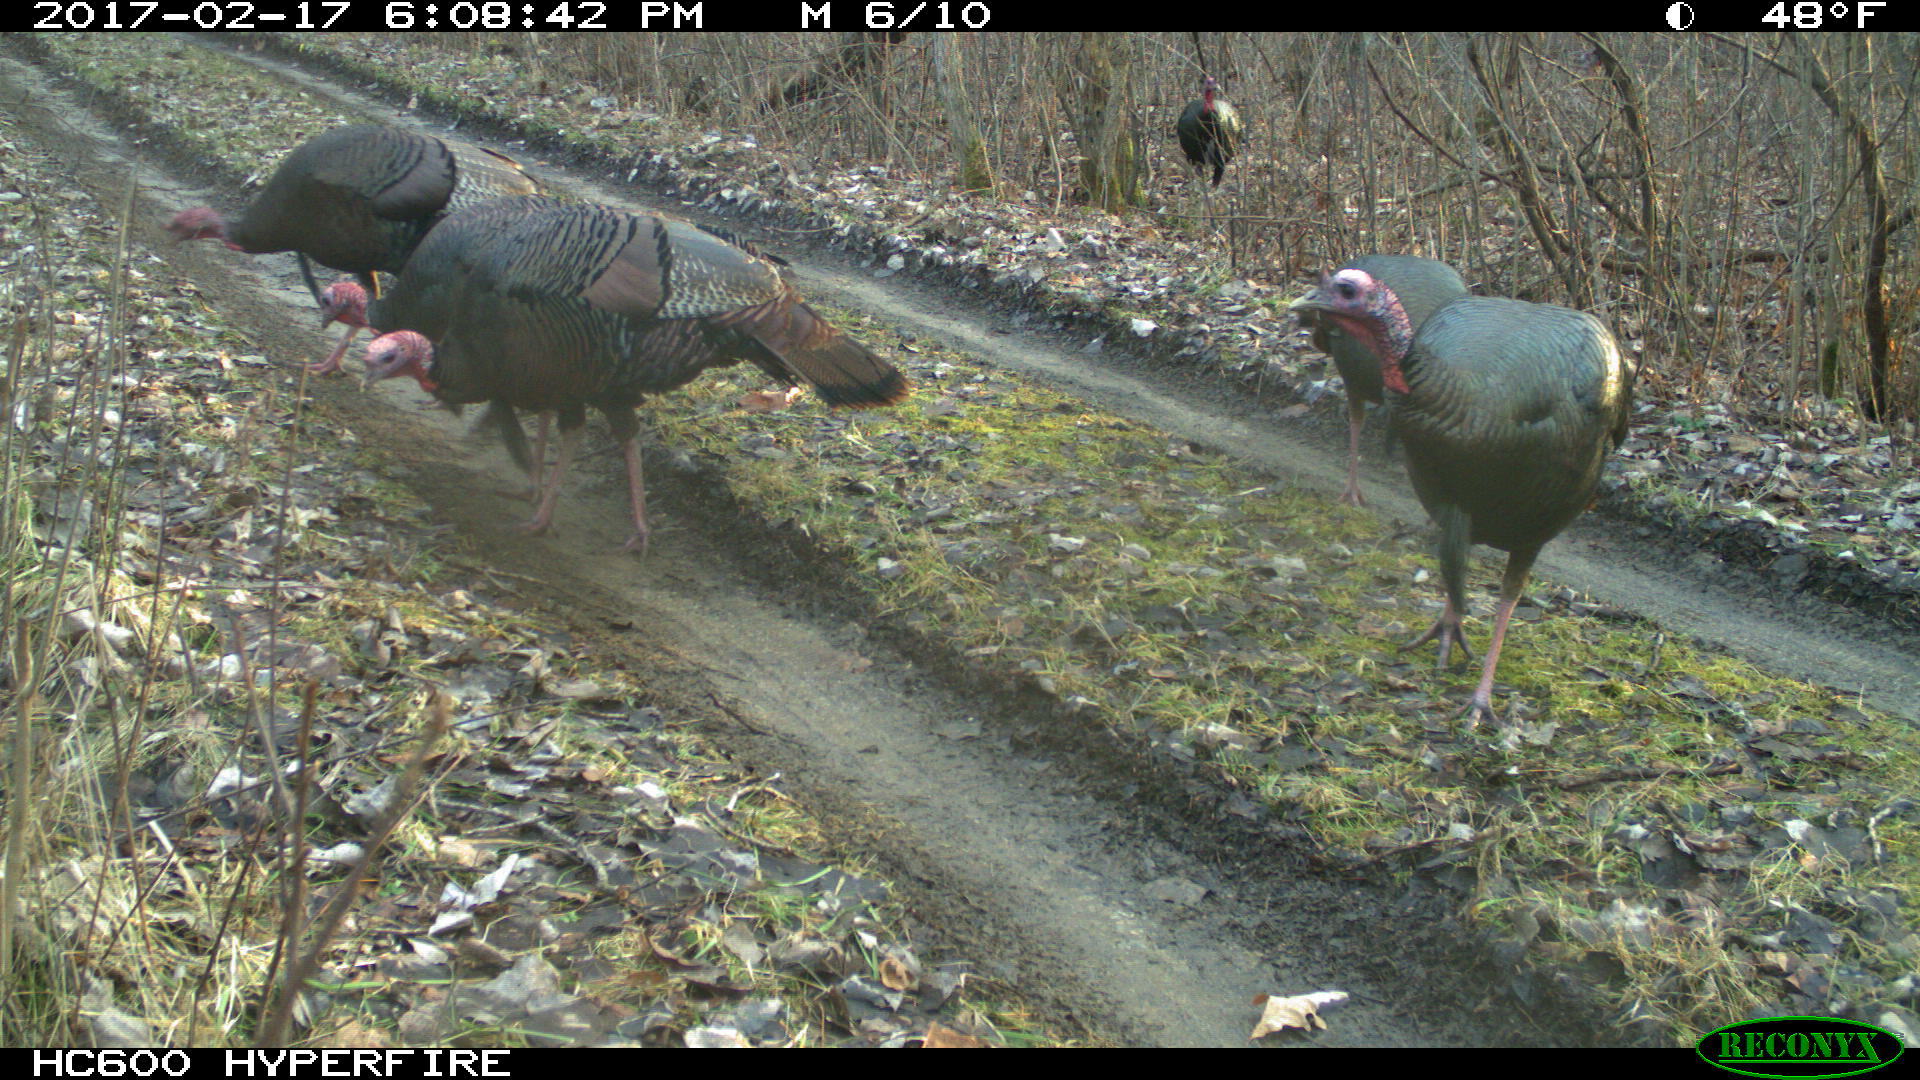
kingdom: Animalia
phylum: Chordata
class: Aves
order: Galliformes
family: Phasianidae
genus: Meleagris
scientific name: Meleagris gallopavo
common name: Wild turkey
